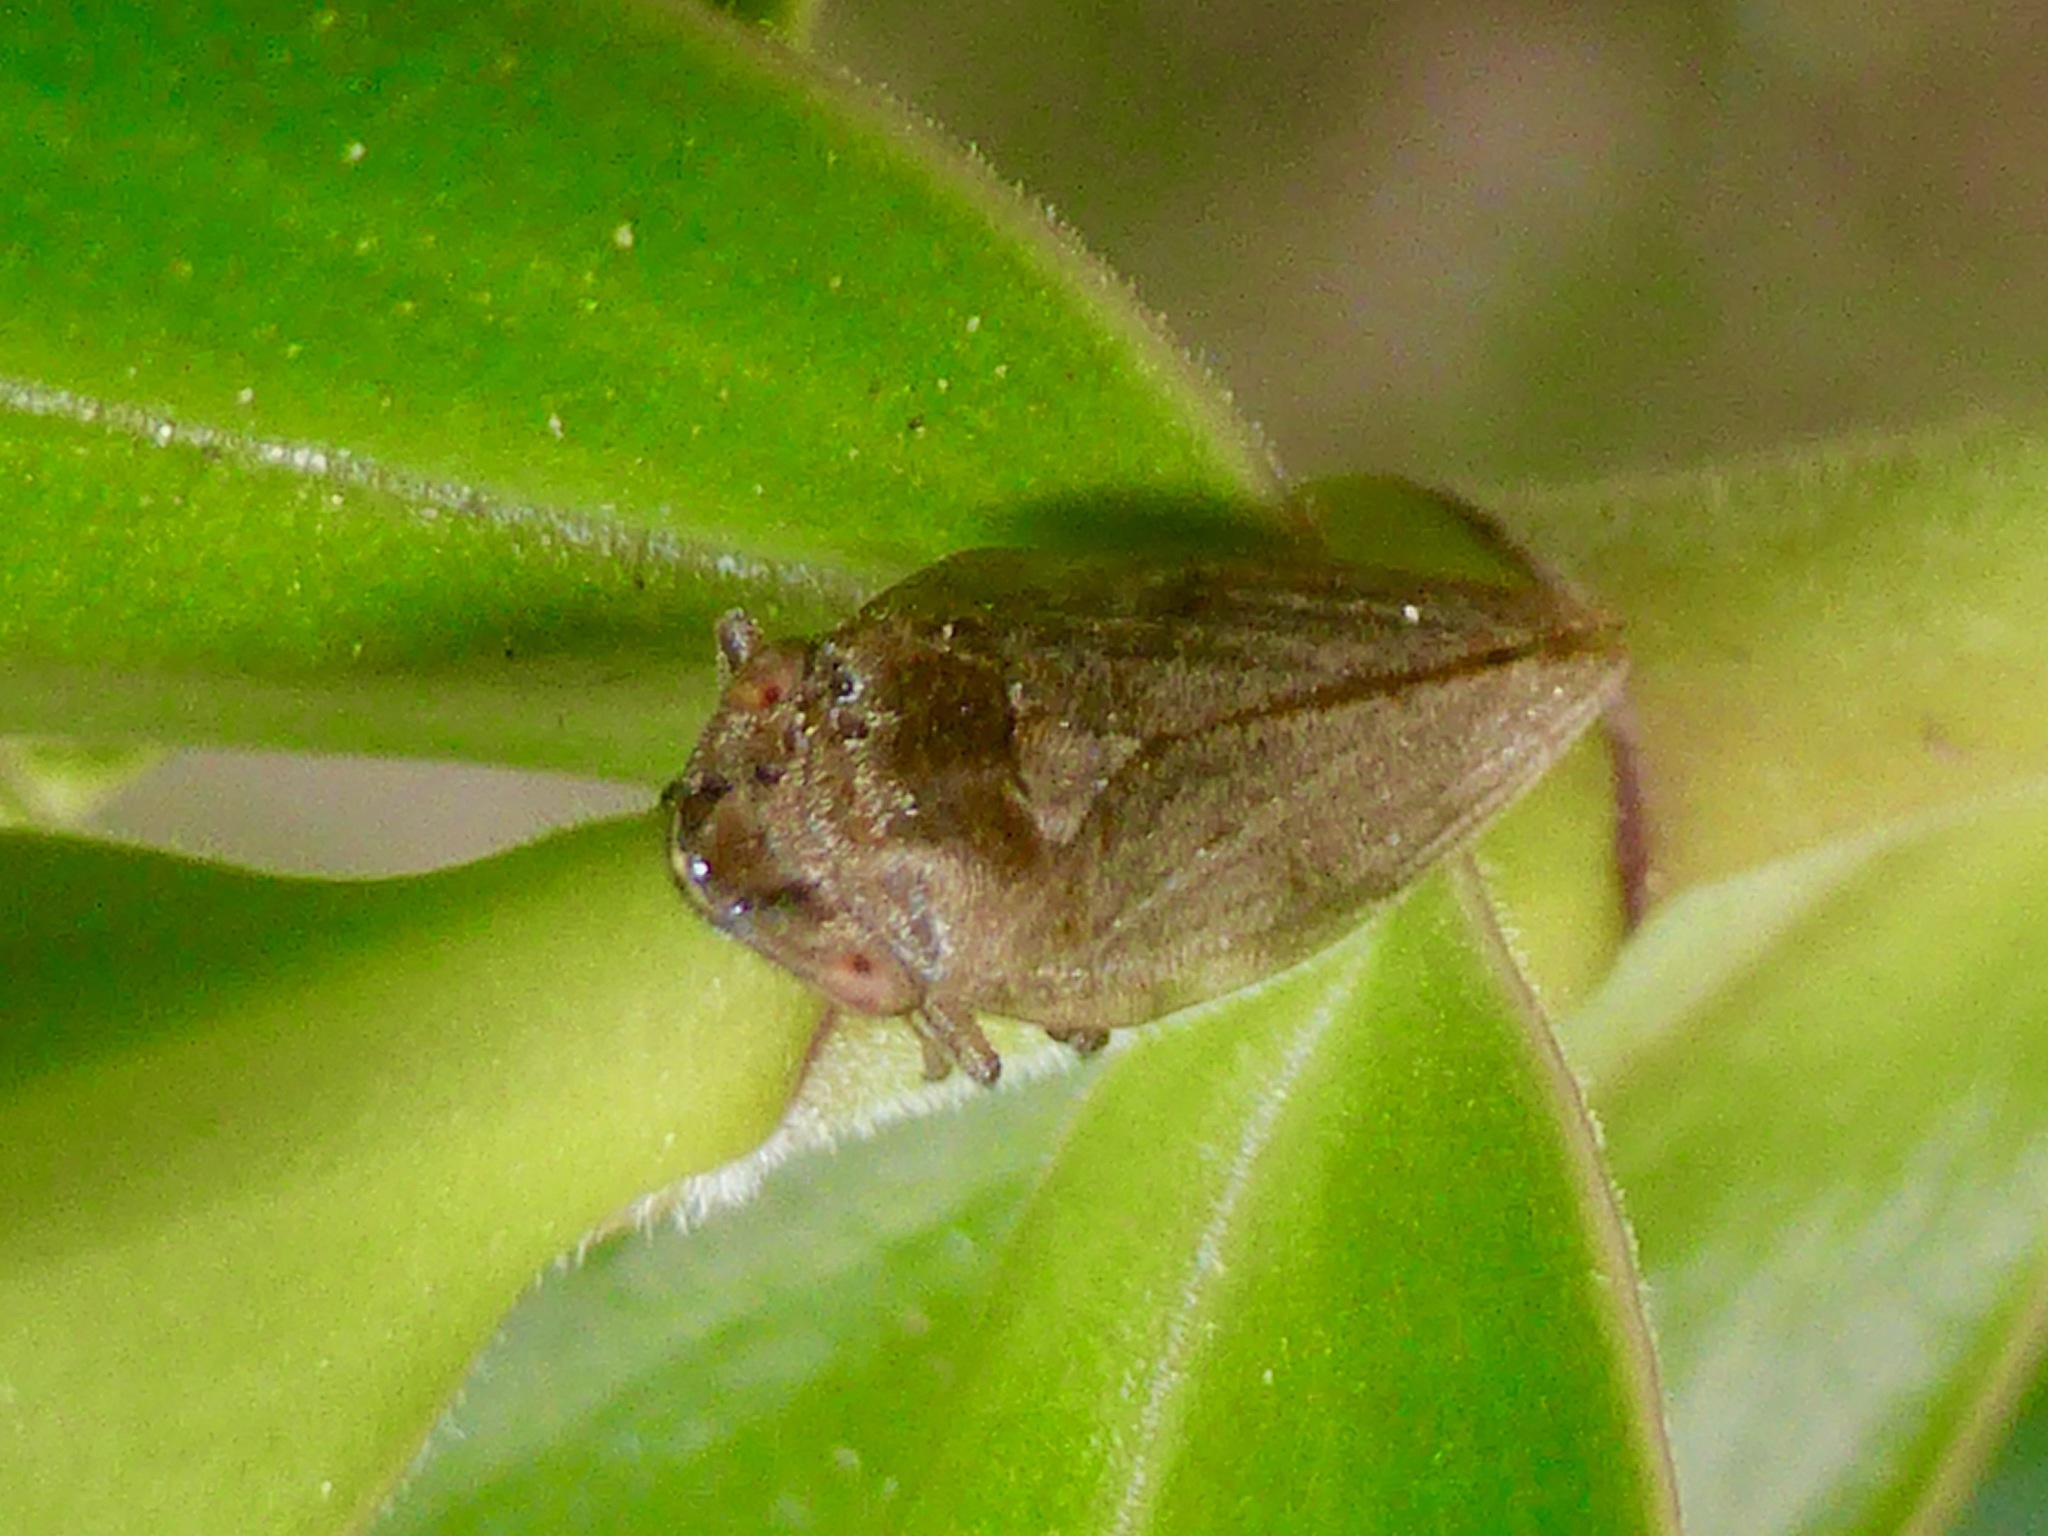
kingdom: Animalia
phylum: Arthropoda
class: Insecta
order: Hemiptera
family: Aphrophoridae
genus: Philaenus
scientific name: Philaenus spumarius
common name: Meadow spittlebug
